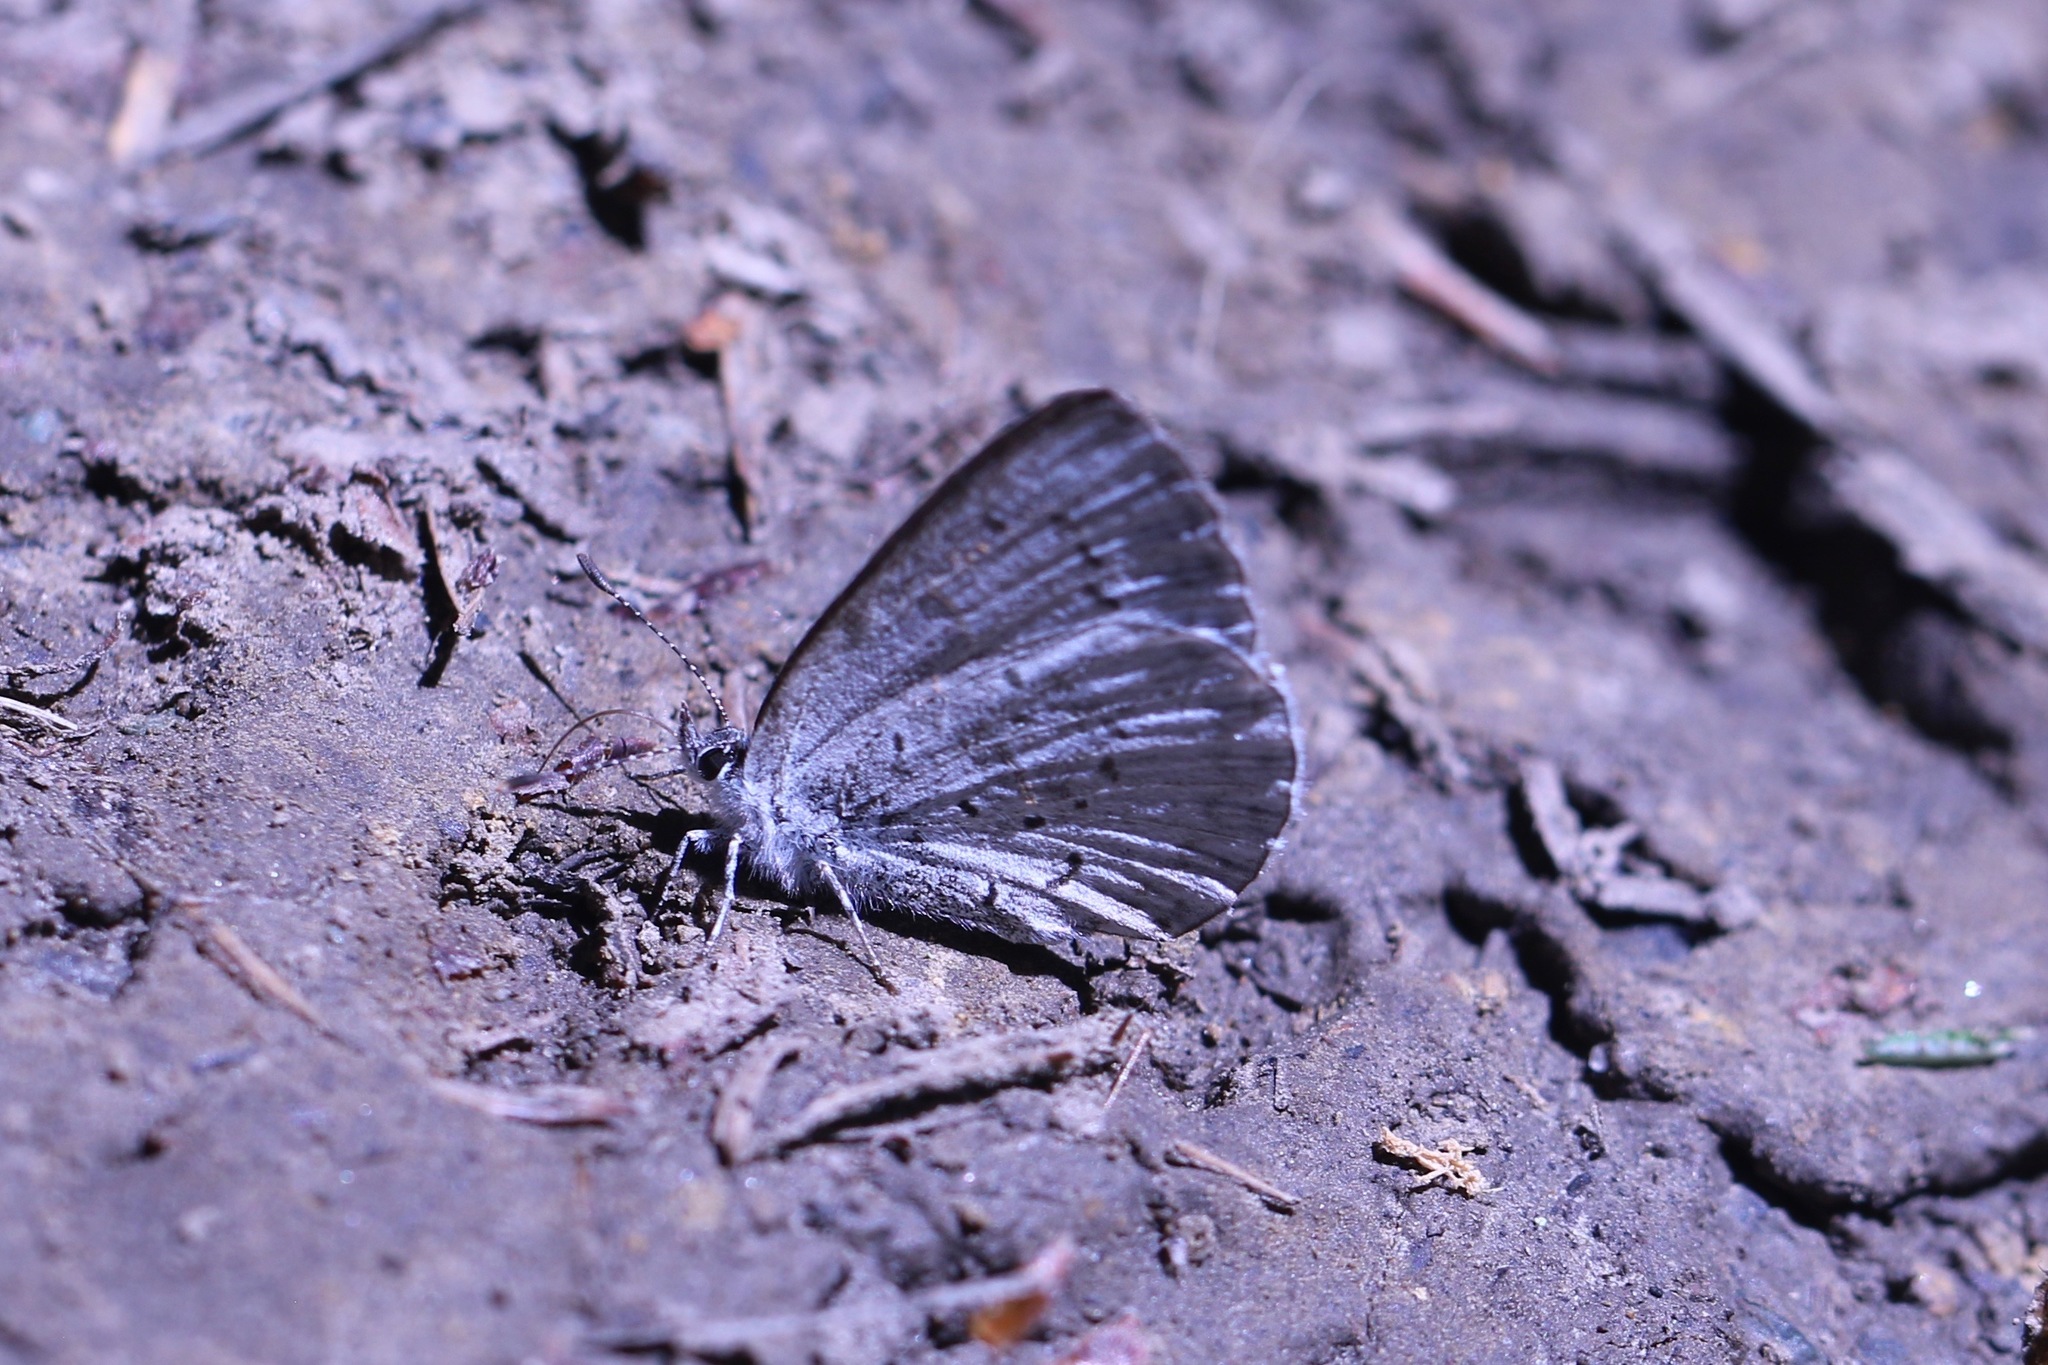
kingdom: Animalia
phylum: Arthropoda
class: Insecta
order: Lepidoptera
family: Lycaenidae
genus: Celastrina
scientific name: Celastrina ladon
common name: Spring azure
